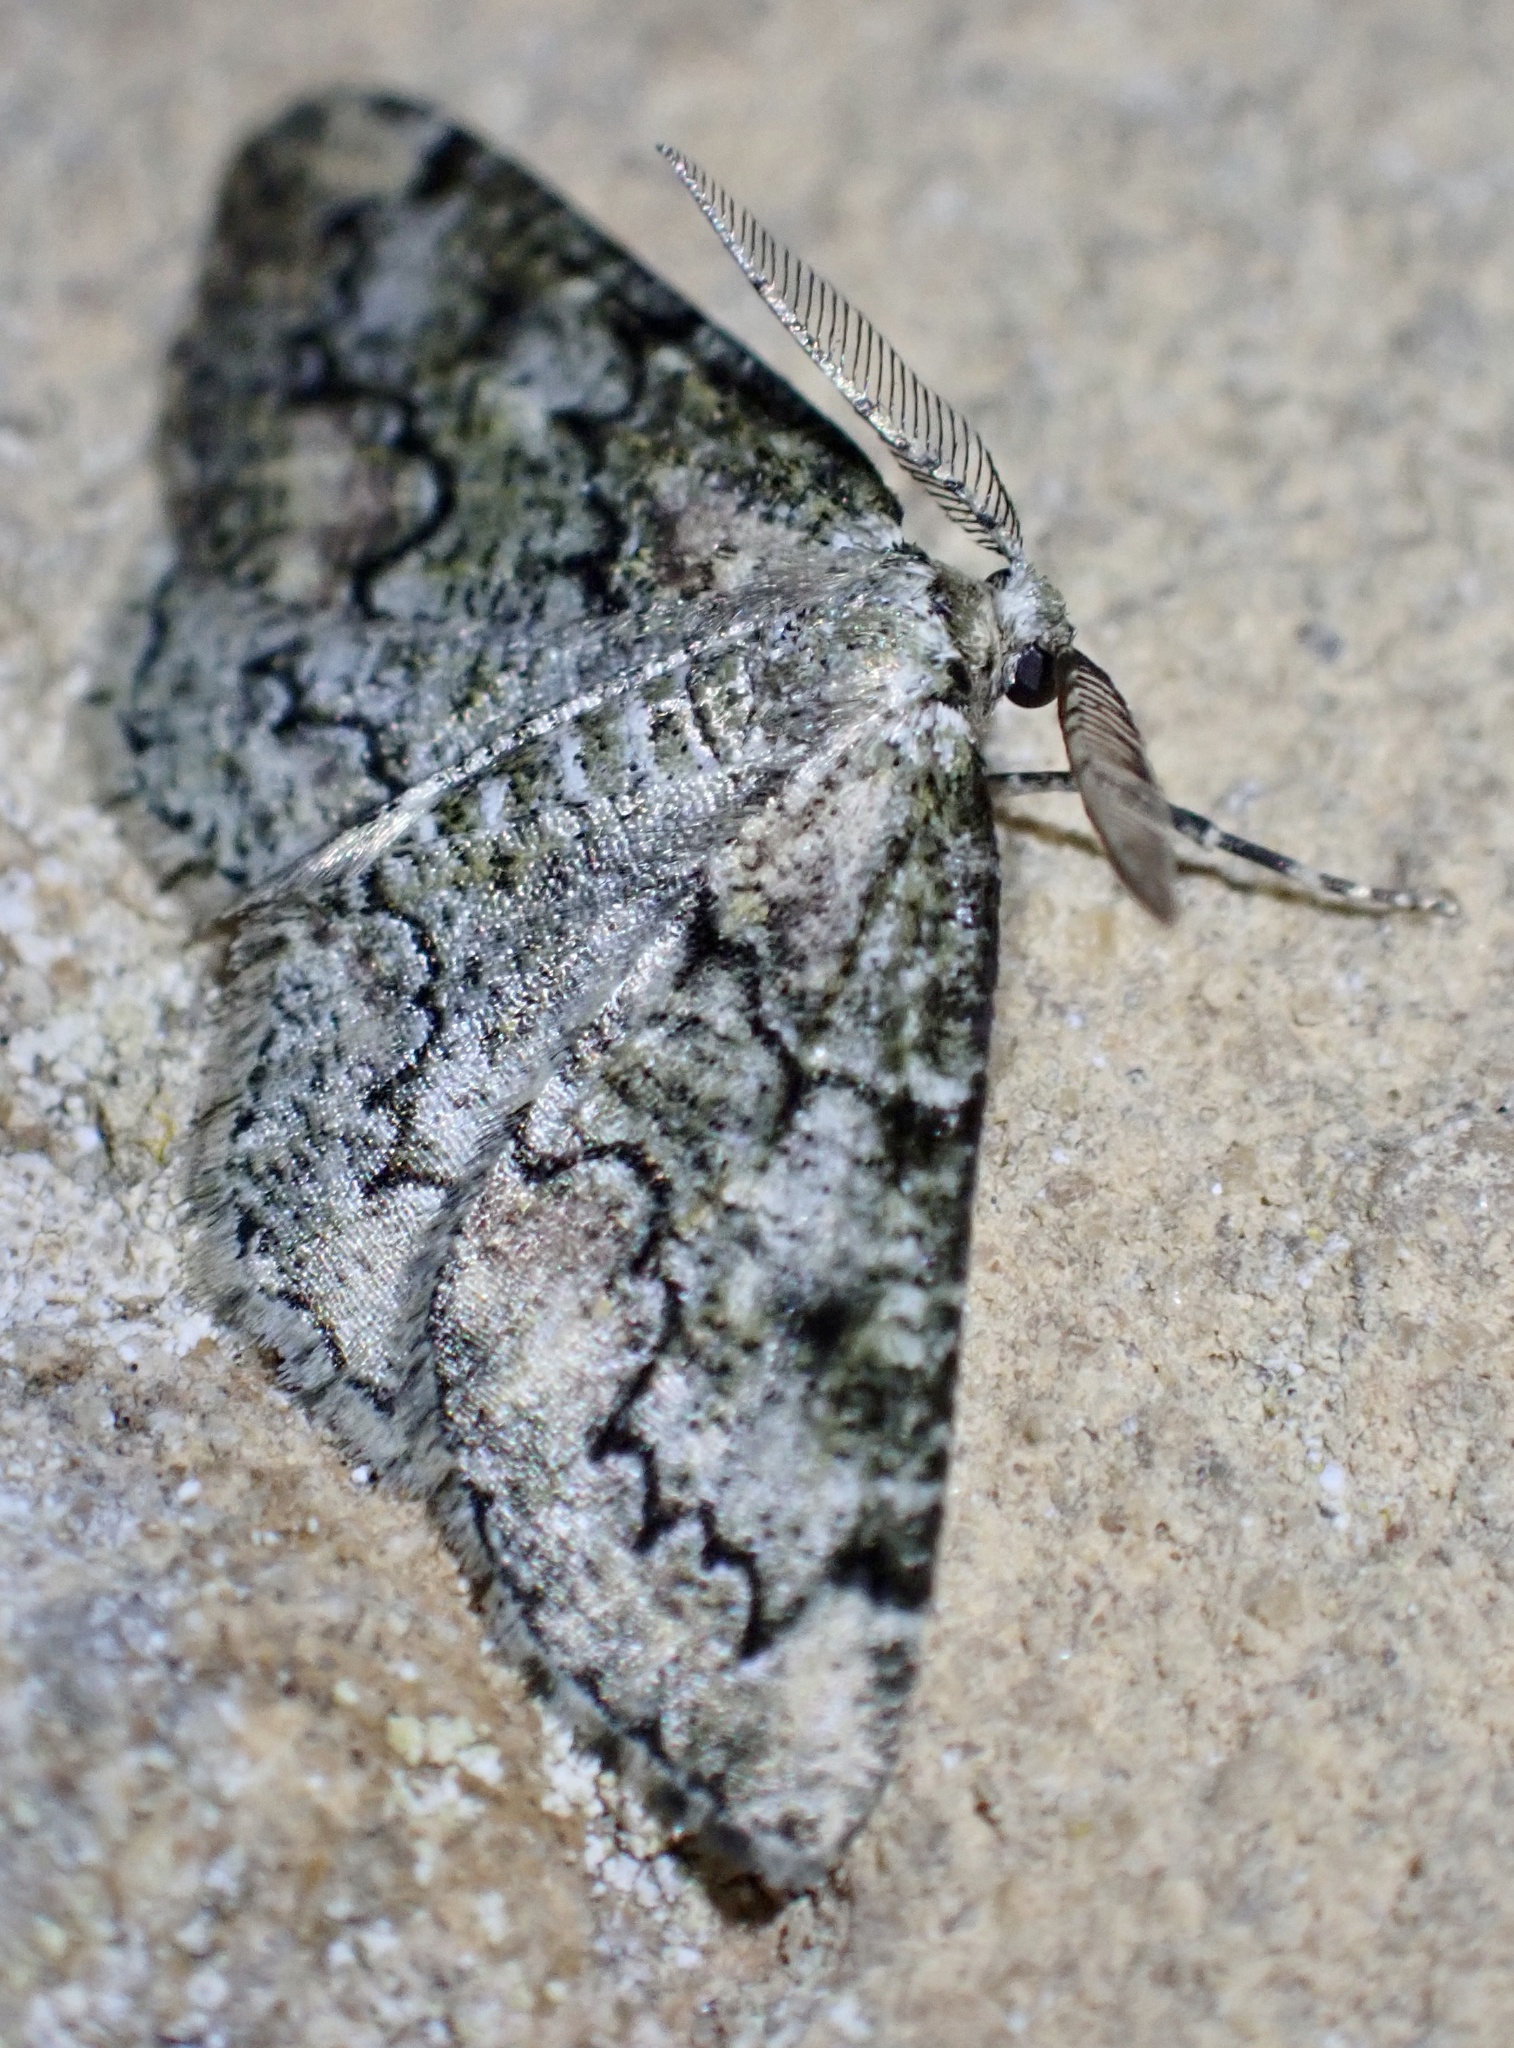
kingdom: Animalia
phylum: Arthropoda
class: Insecta
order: Lepidoptera
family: Geometridae
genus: Cleorodes
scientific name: Cleorodes lichenaria
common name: Brussels lace
